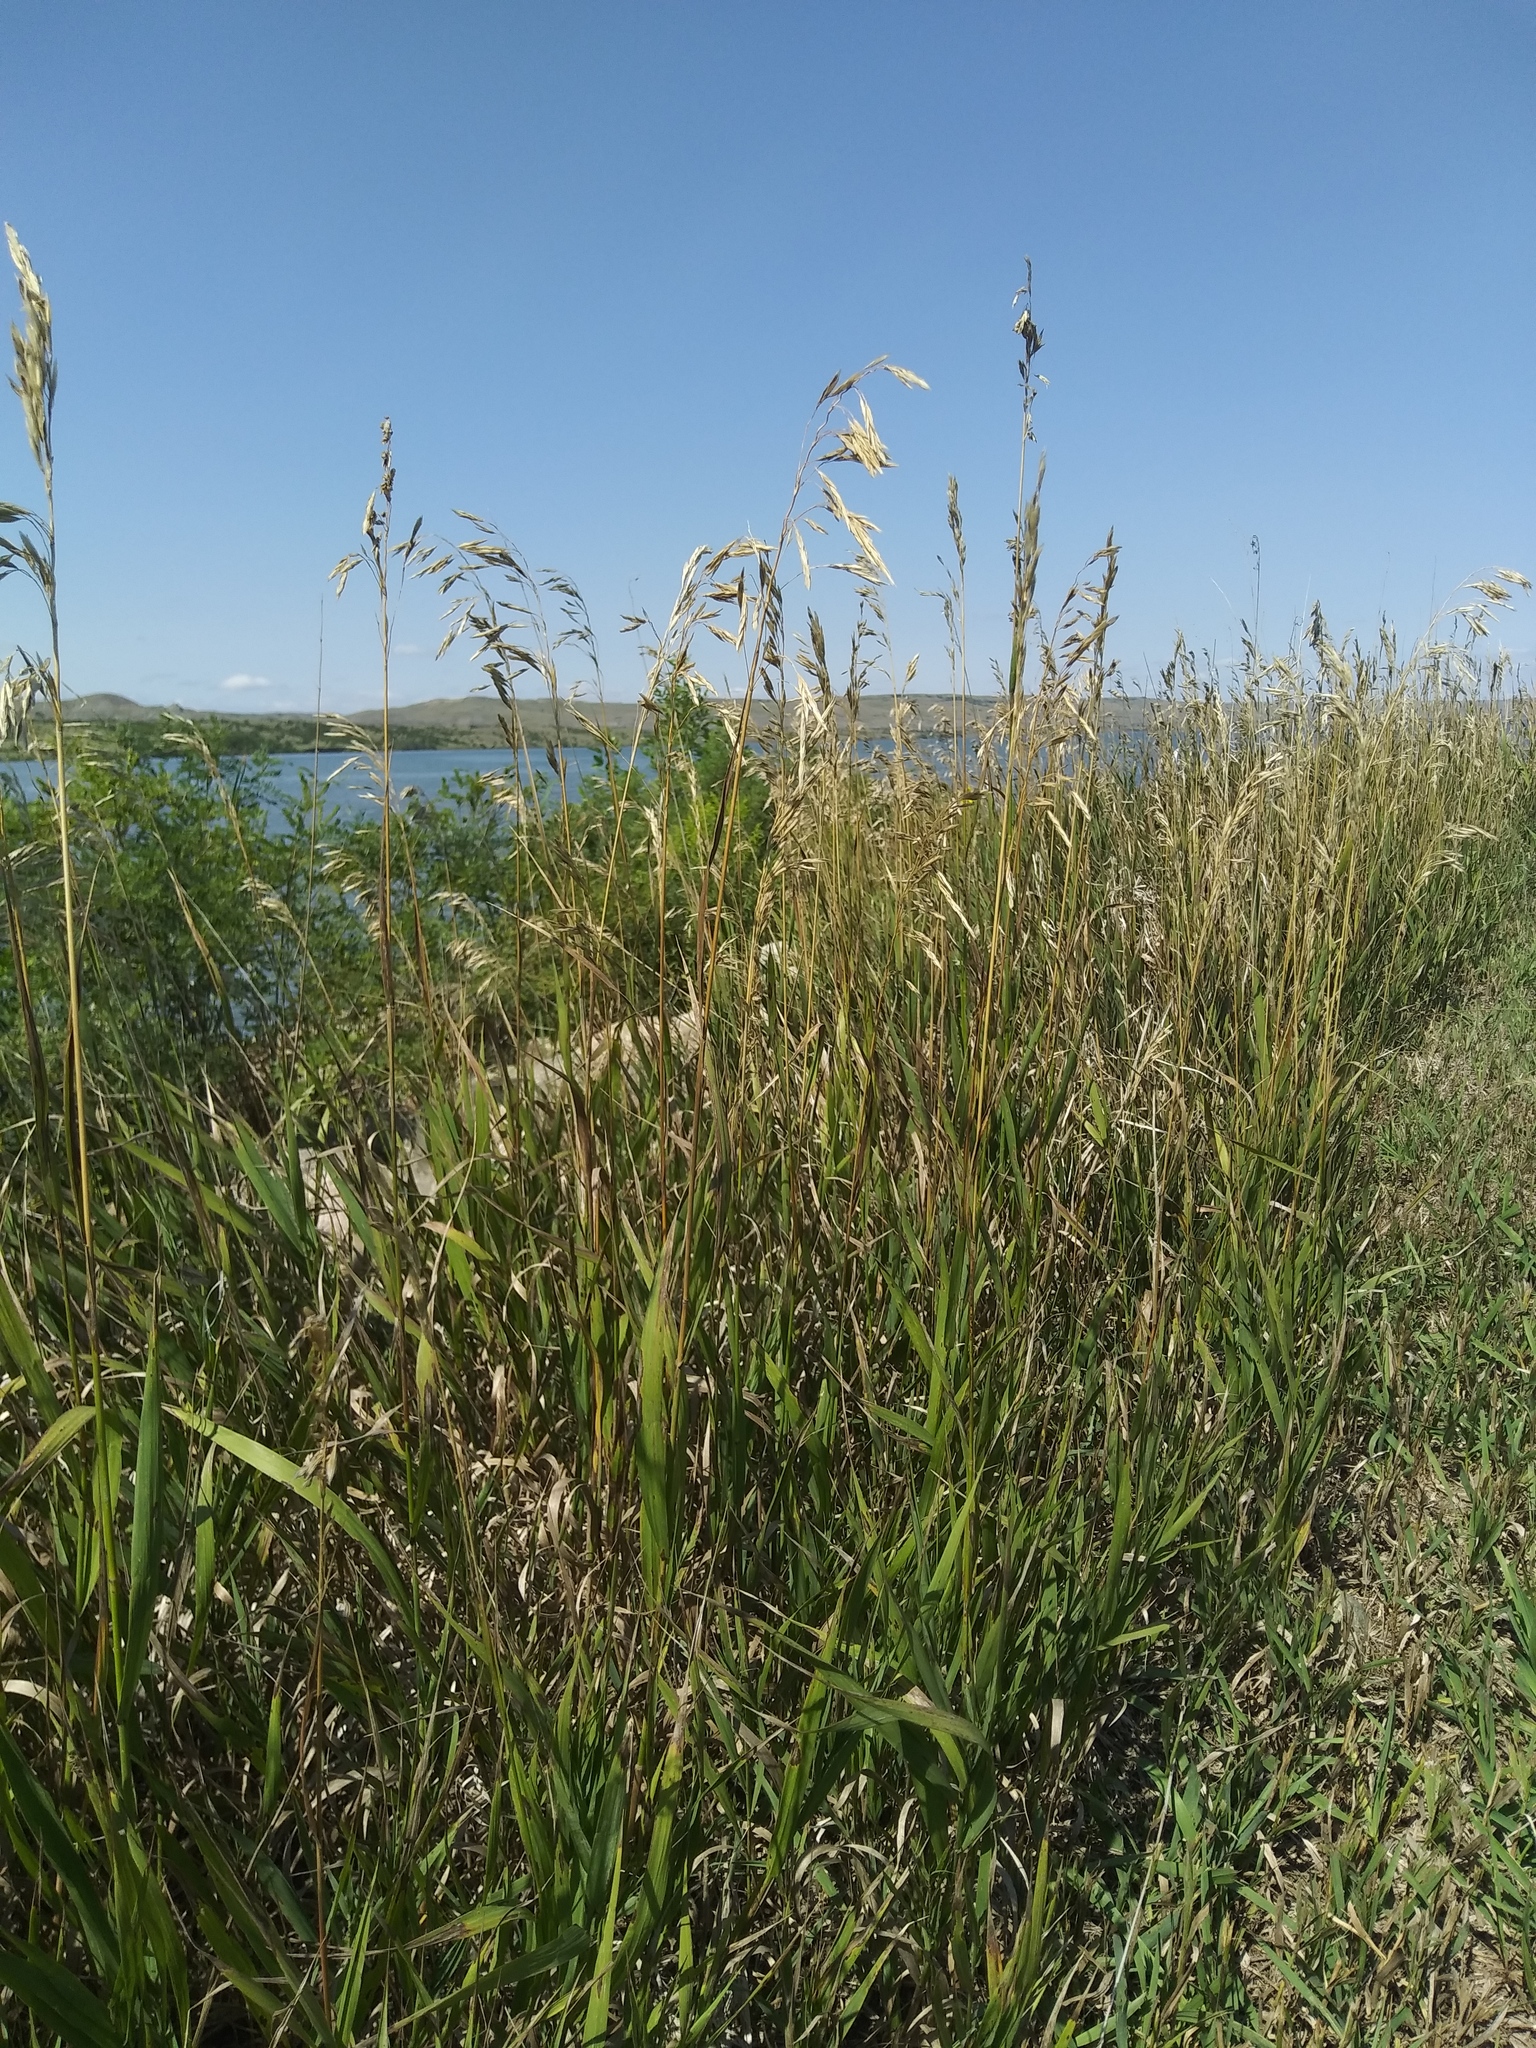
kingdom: Plantae
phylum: Tracheophyta
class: Liliopsida
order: Poales
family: Poaceae
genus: Bromus
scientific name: Bromus inermis
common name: Smooth brome
